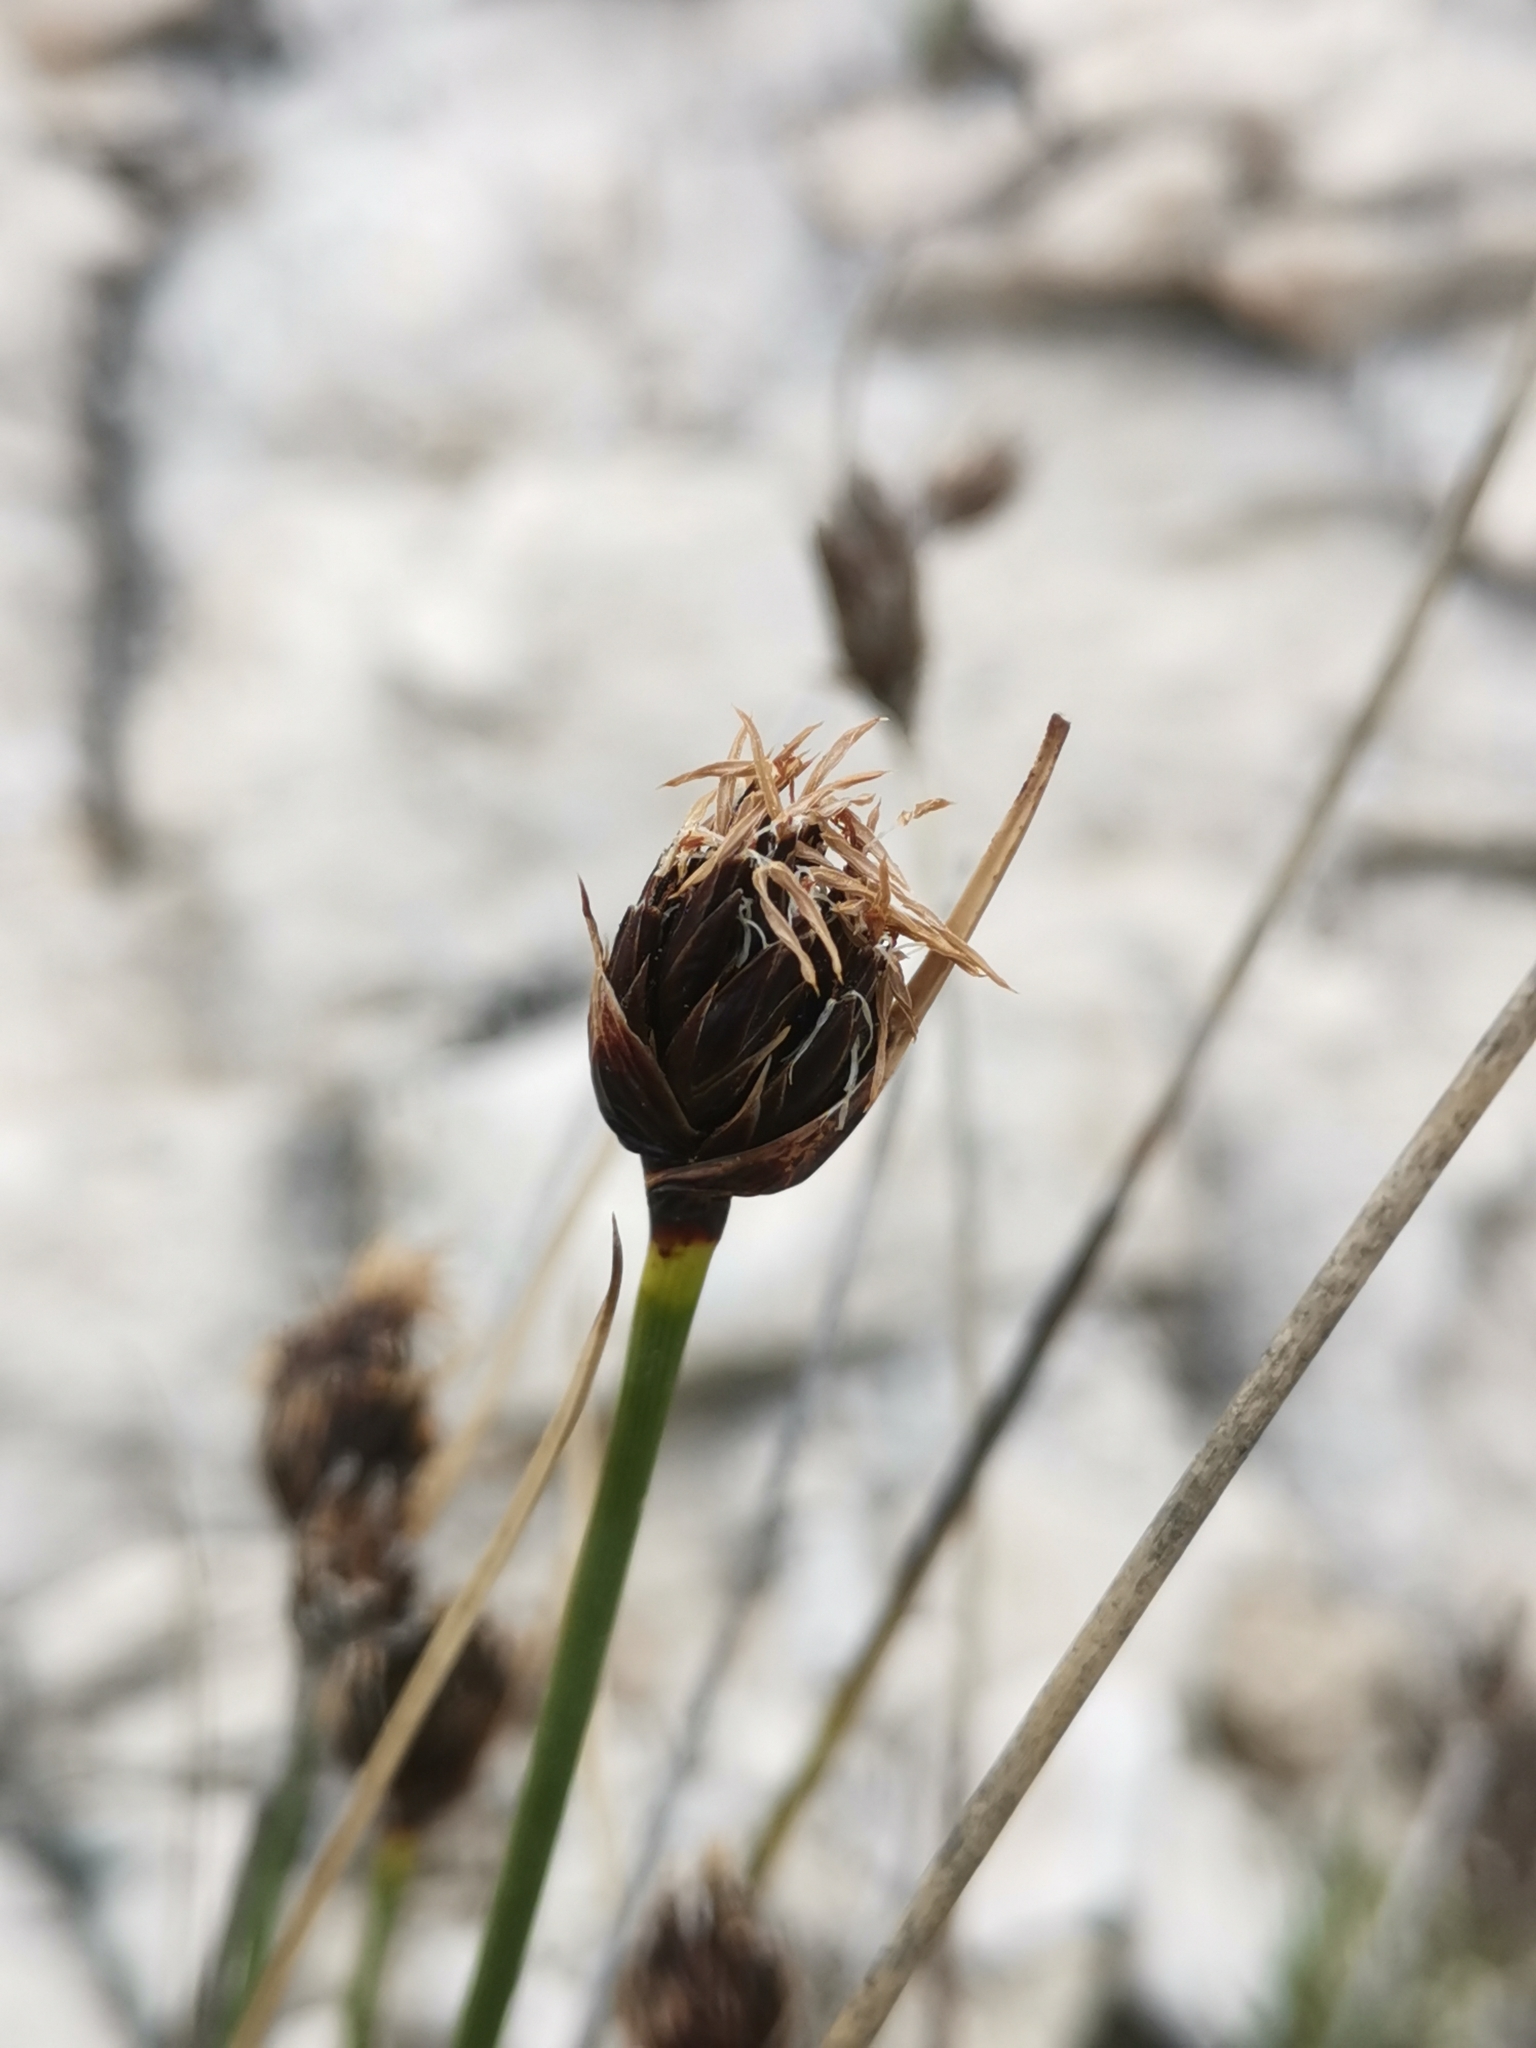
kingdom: Plantae
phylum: Tracheophyta
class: Liliopsida
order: Poales
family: Cyperaceae
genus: Schoenus
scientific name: Schoenus nigricans
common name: Black bog-rush
